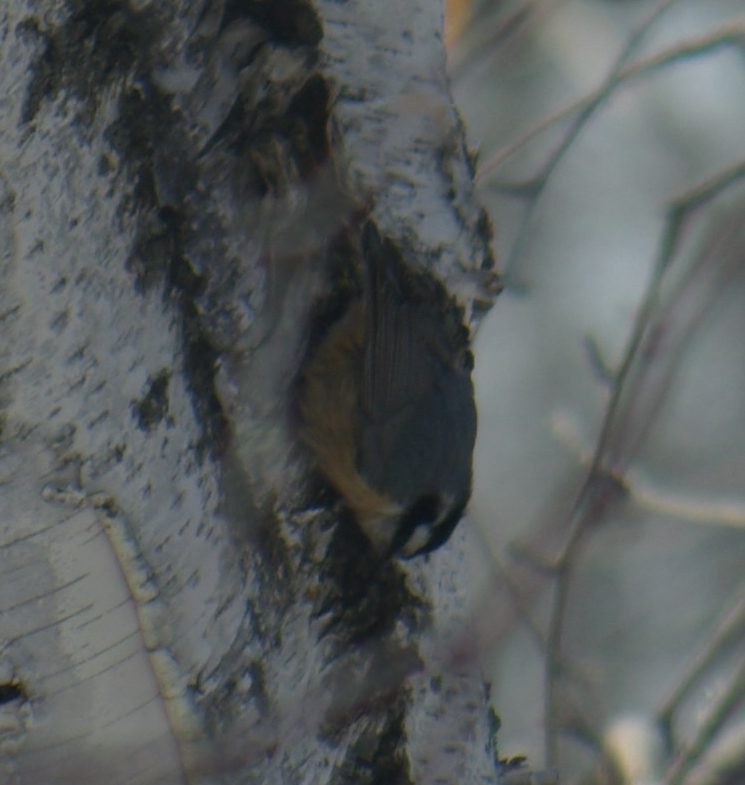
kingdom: Animalia
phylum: Chordata
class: Aves
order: Passeriformes
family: Sittidae
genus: Sitta
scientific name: Sitta canadensis
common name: Red-breasted nuthatch
